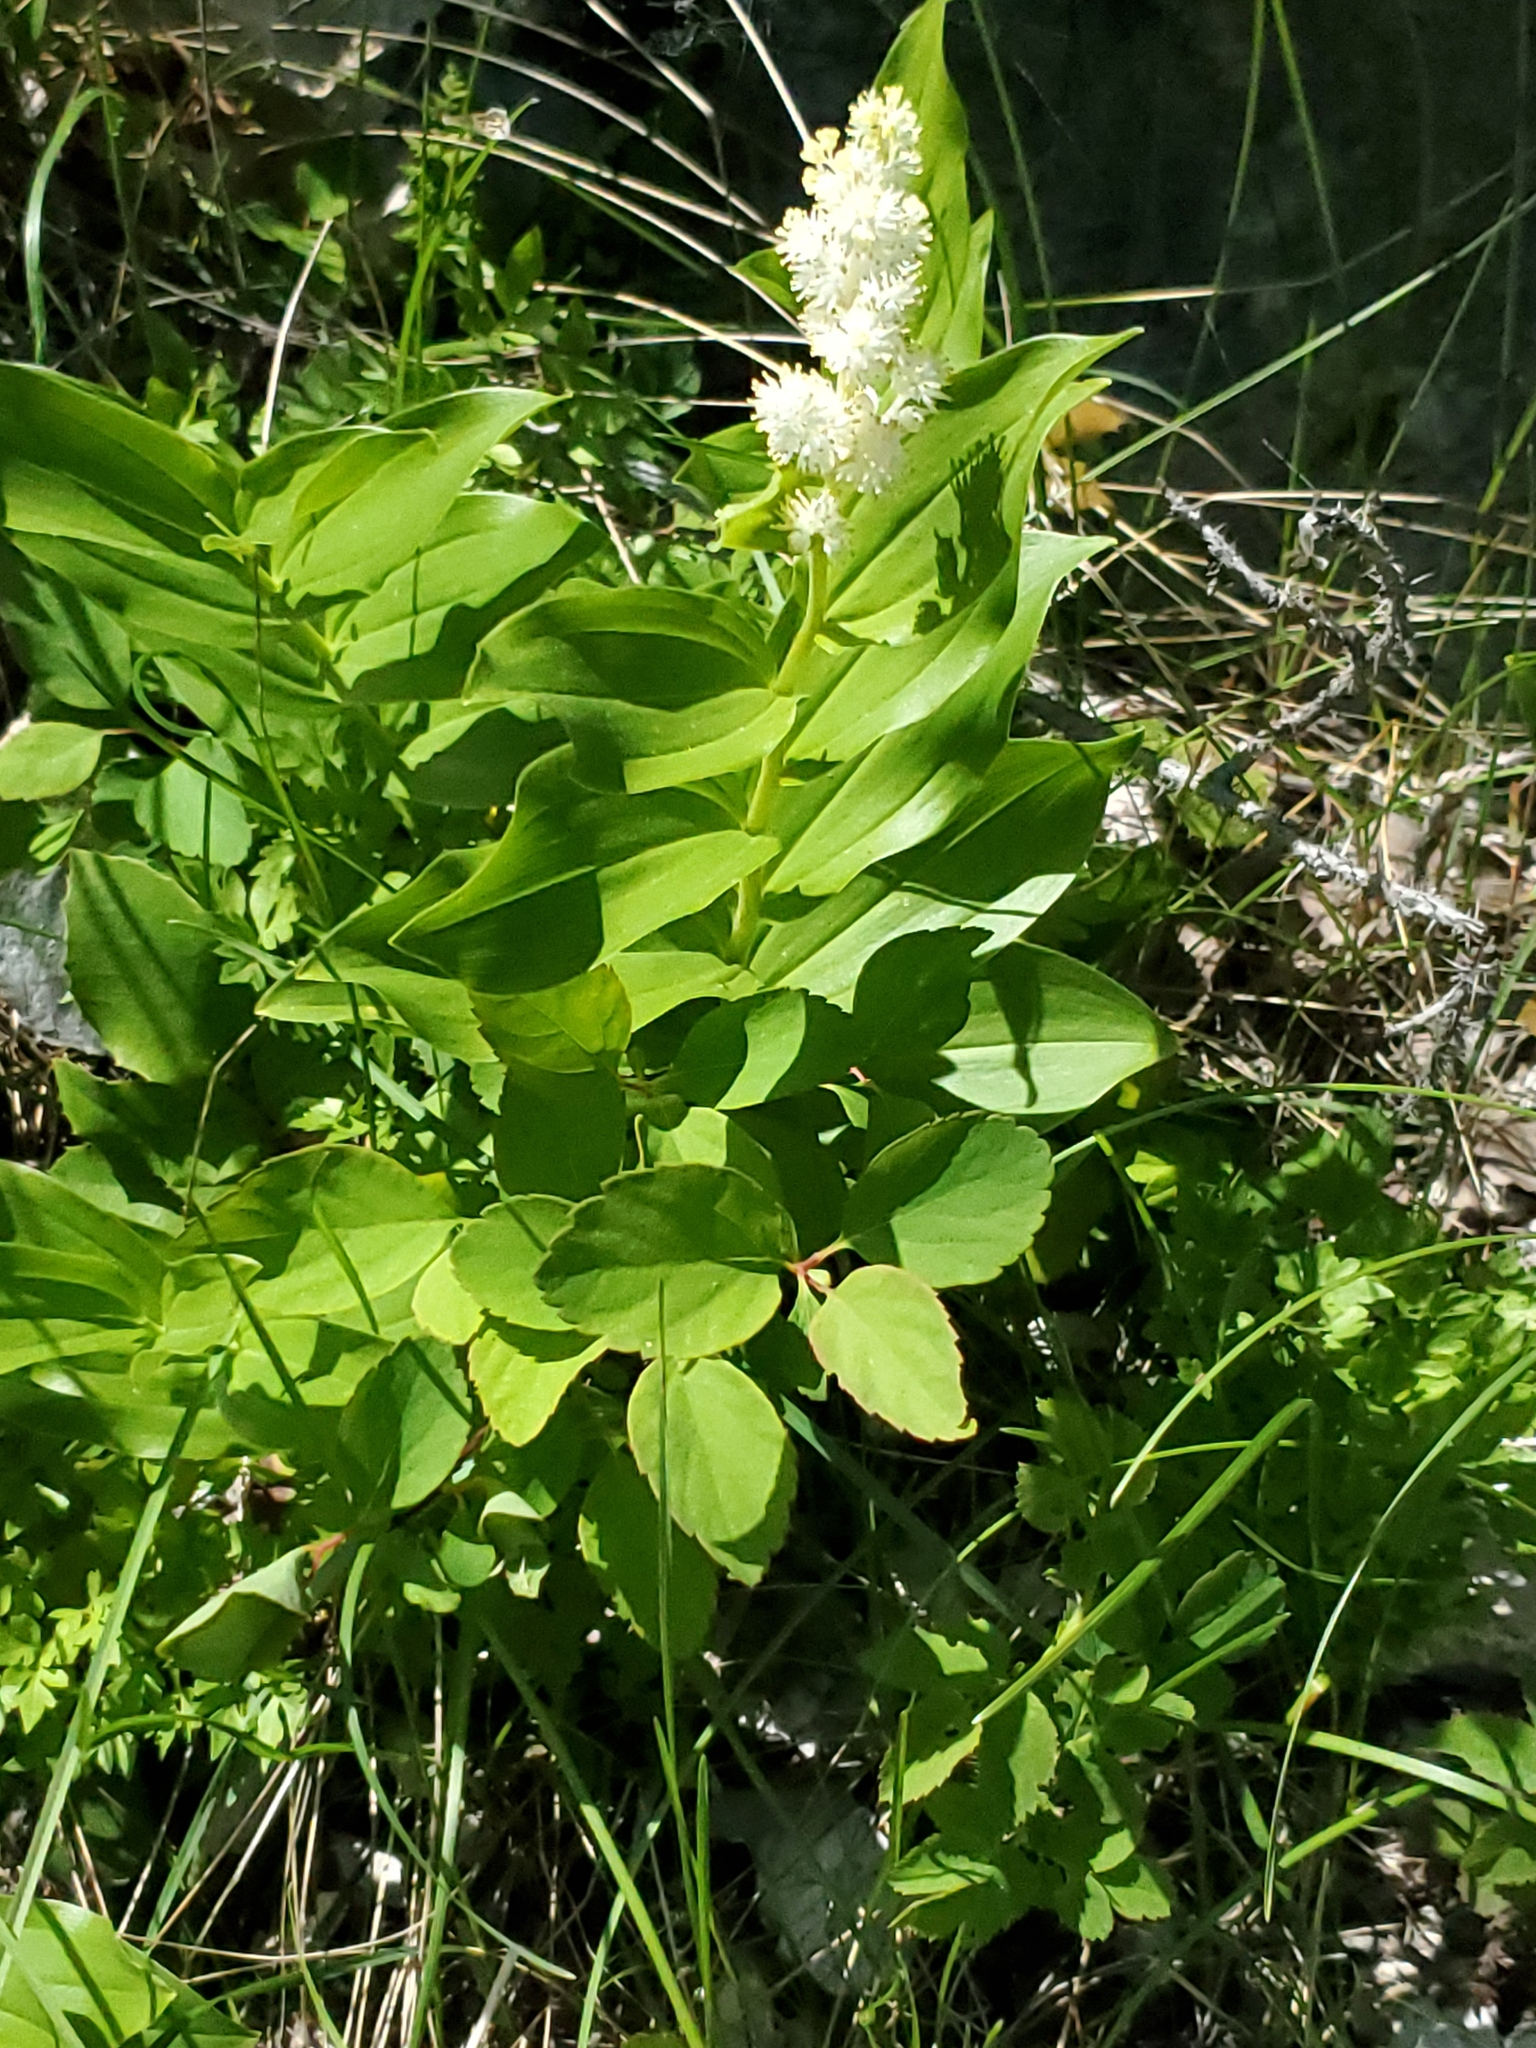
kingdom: Plantae
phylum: Tracheophyta
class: Liliopsida
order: Asparagales
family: Asparagaceae
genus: Maianthemum
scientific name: Maianthemum racemosum
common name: False spikenard
